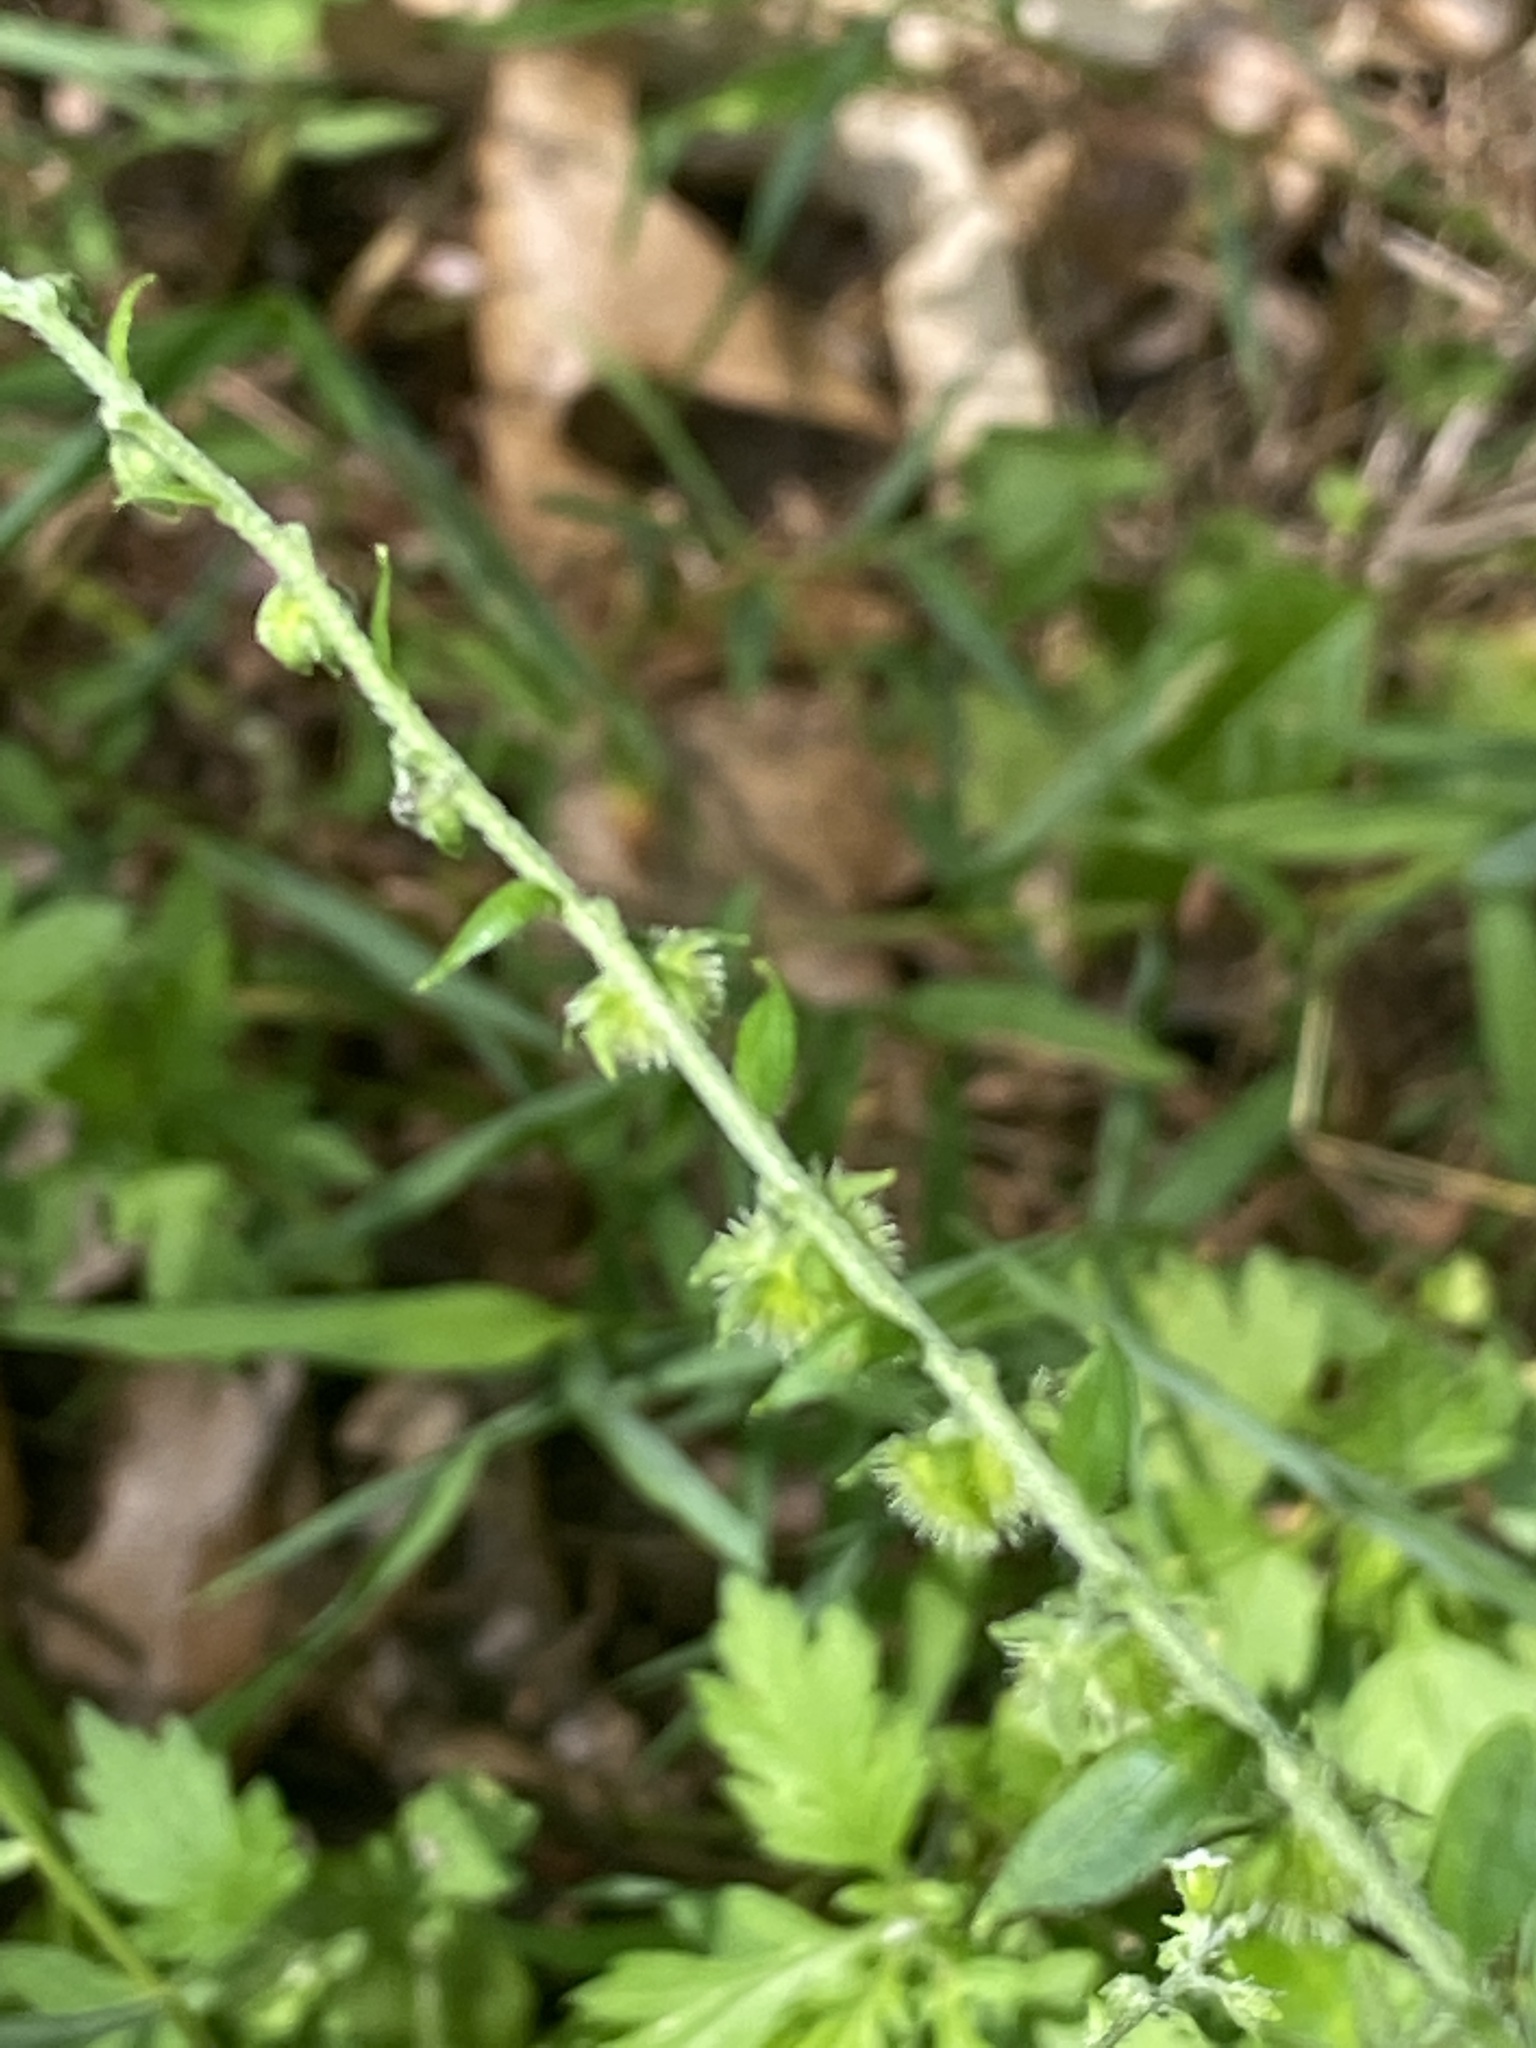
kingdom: Plantae
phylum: Tracheophyta
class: Magnoliopsida
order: Boraginales
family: Boraginaceae
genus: Hackelia
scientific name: Hackelia virginiana
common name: Beggar's-lice
